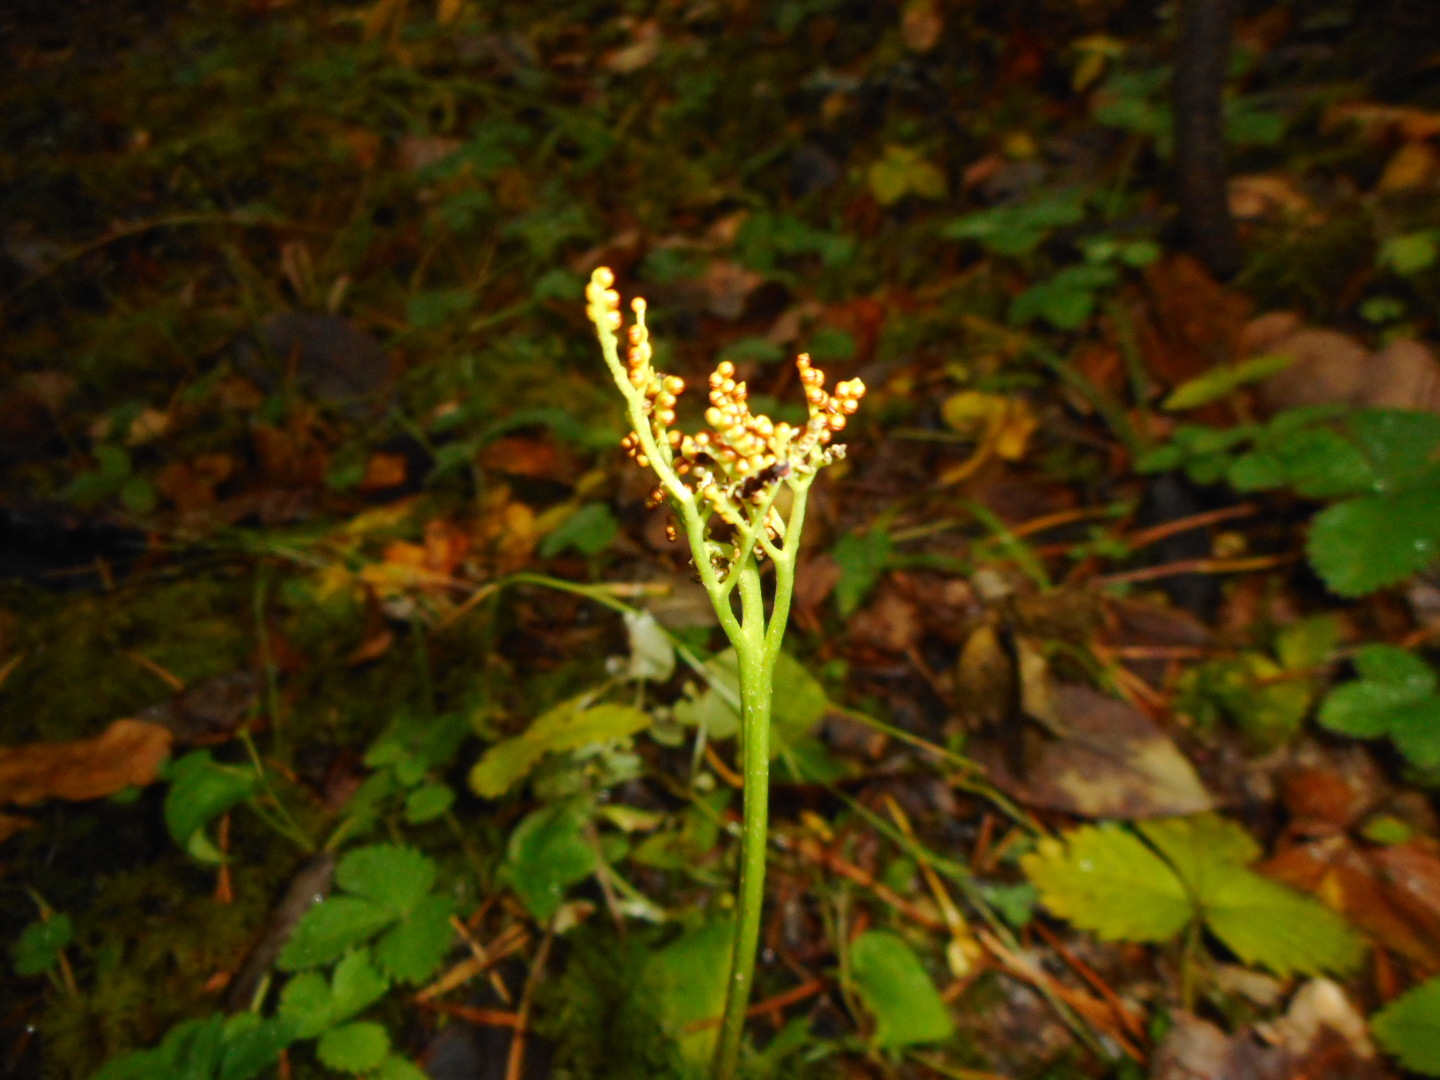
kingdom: Plantae
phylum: Tracheophyta
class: Polypodiopsida
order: Ophioglossales
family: Ophioglossaceae
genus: Sceptridium
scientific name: Sceptridium multifidum
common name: Leathery grape fern
